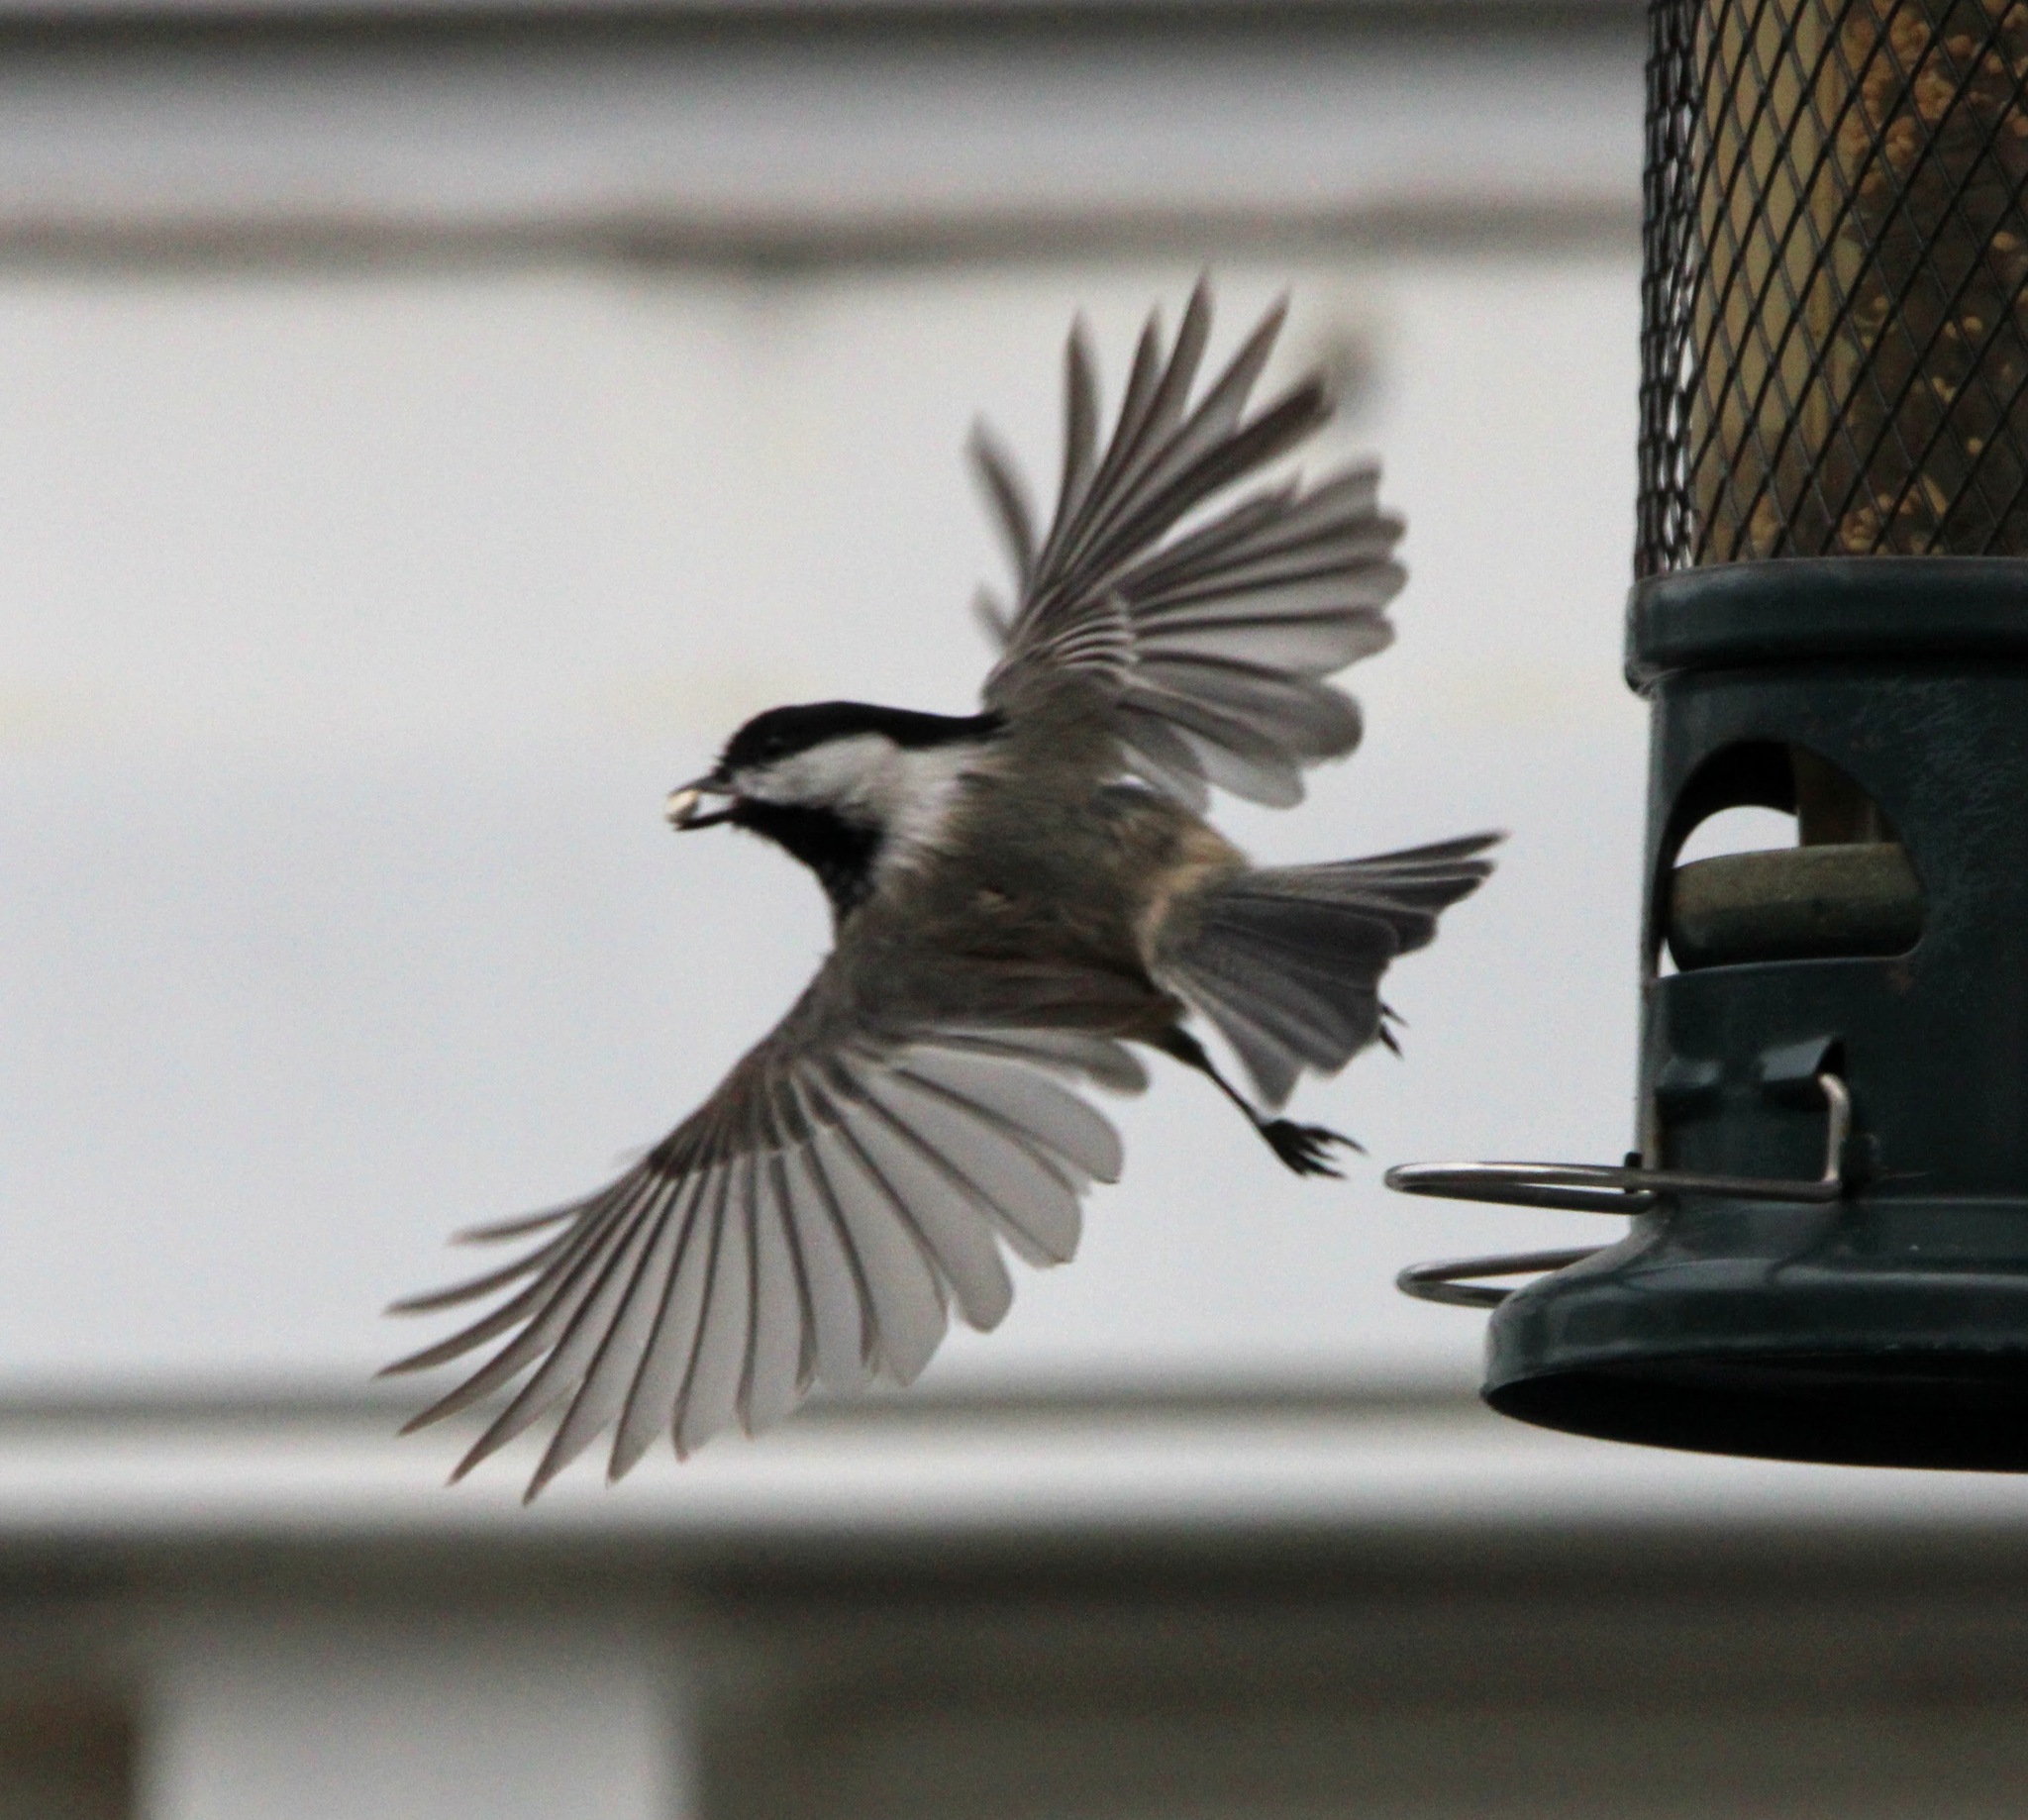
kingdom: Animalia
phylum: Chordata
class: Aves
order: Passeriformes
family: Paridae
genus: Poecile
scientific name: Poecile atricapillus
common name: Black-capped chickadee
